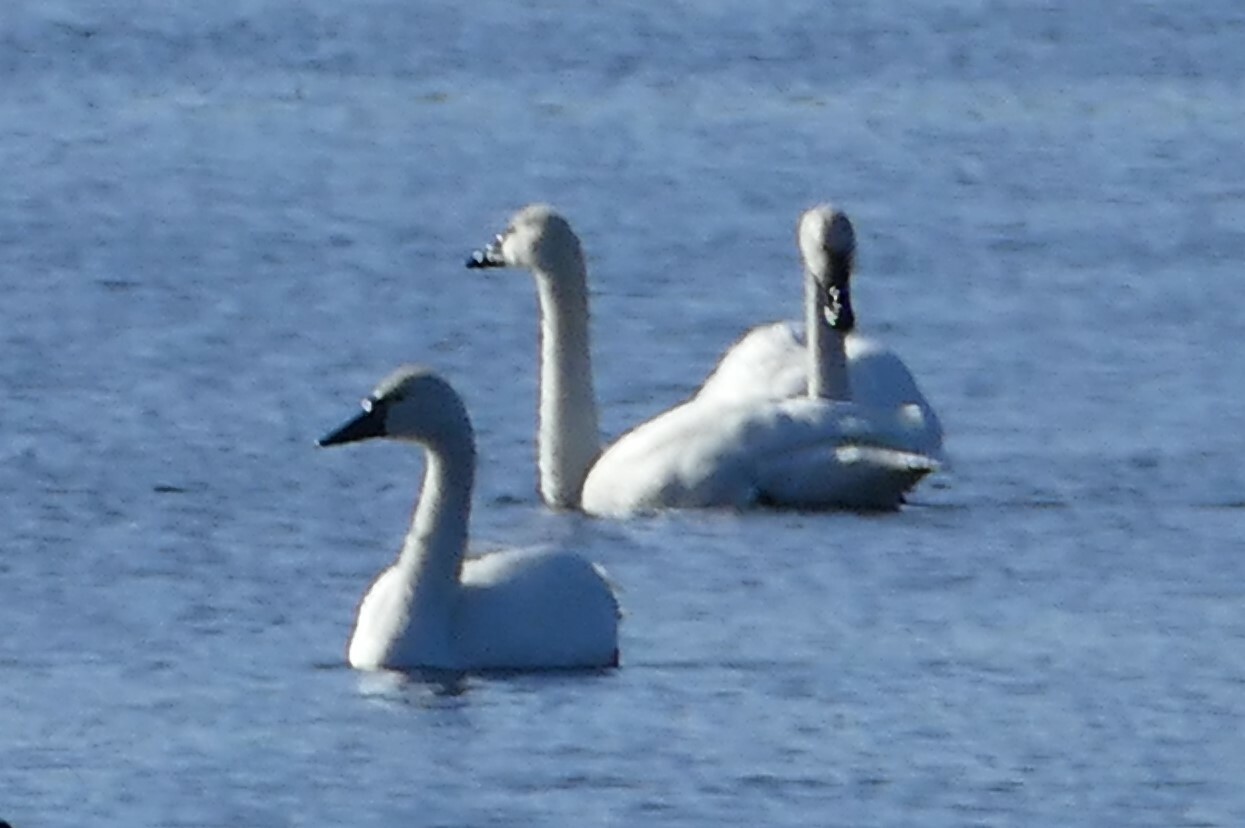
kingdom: Animalia
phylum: Chordata
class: Aves
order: Anseriformes
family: Anatidae
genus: Cygnus
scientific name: Cygnus columbianus
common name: Tundra swan
